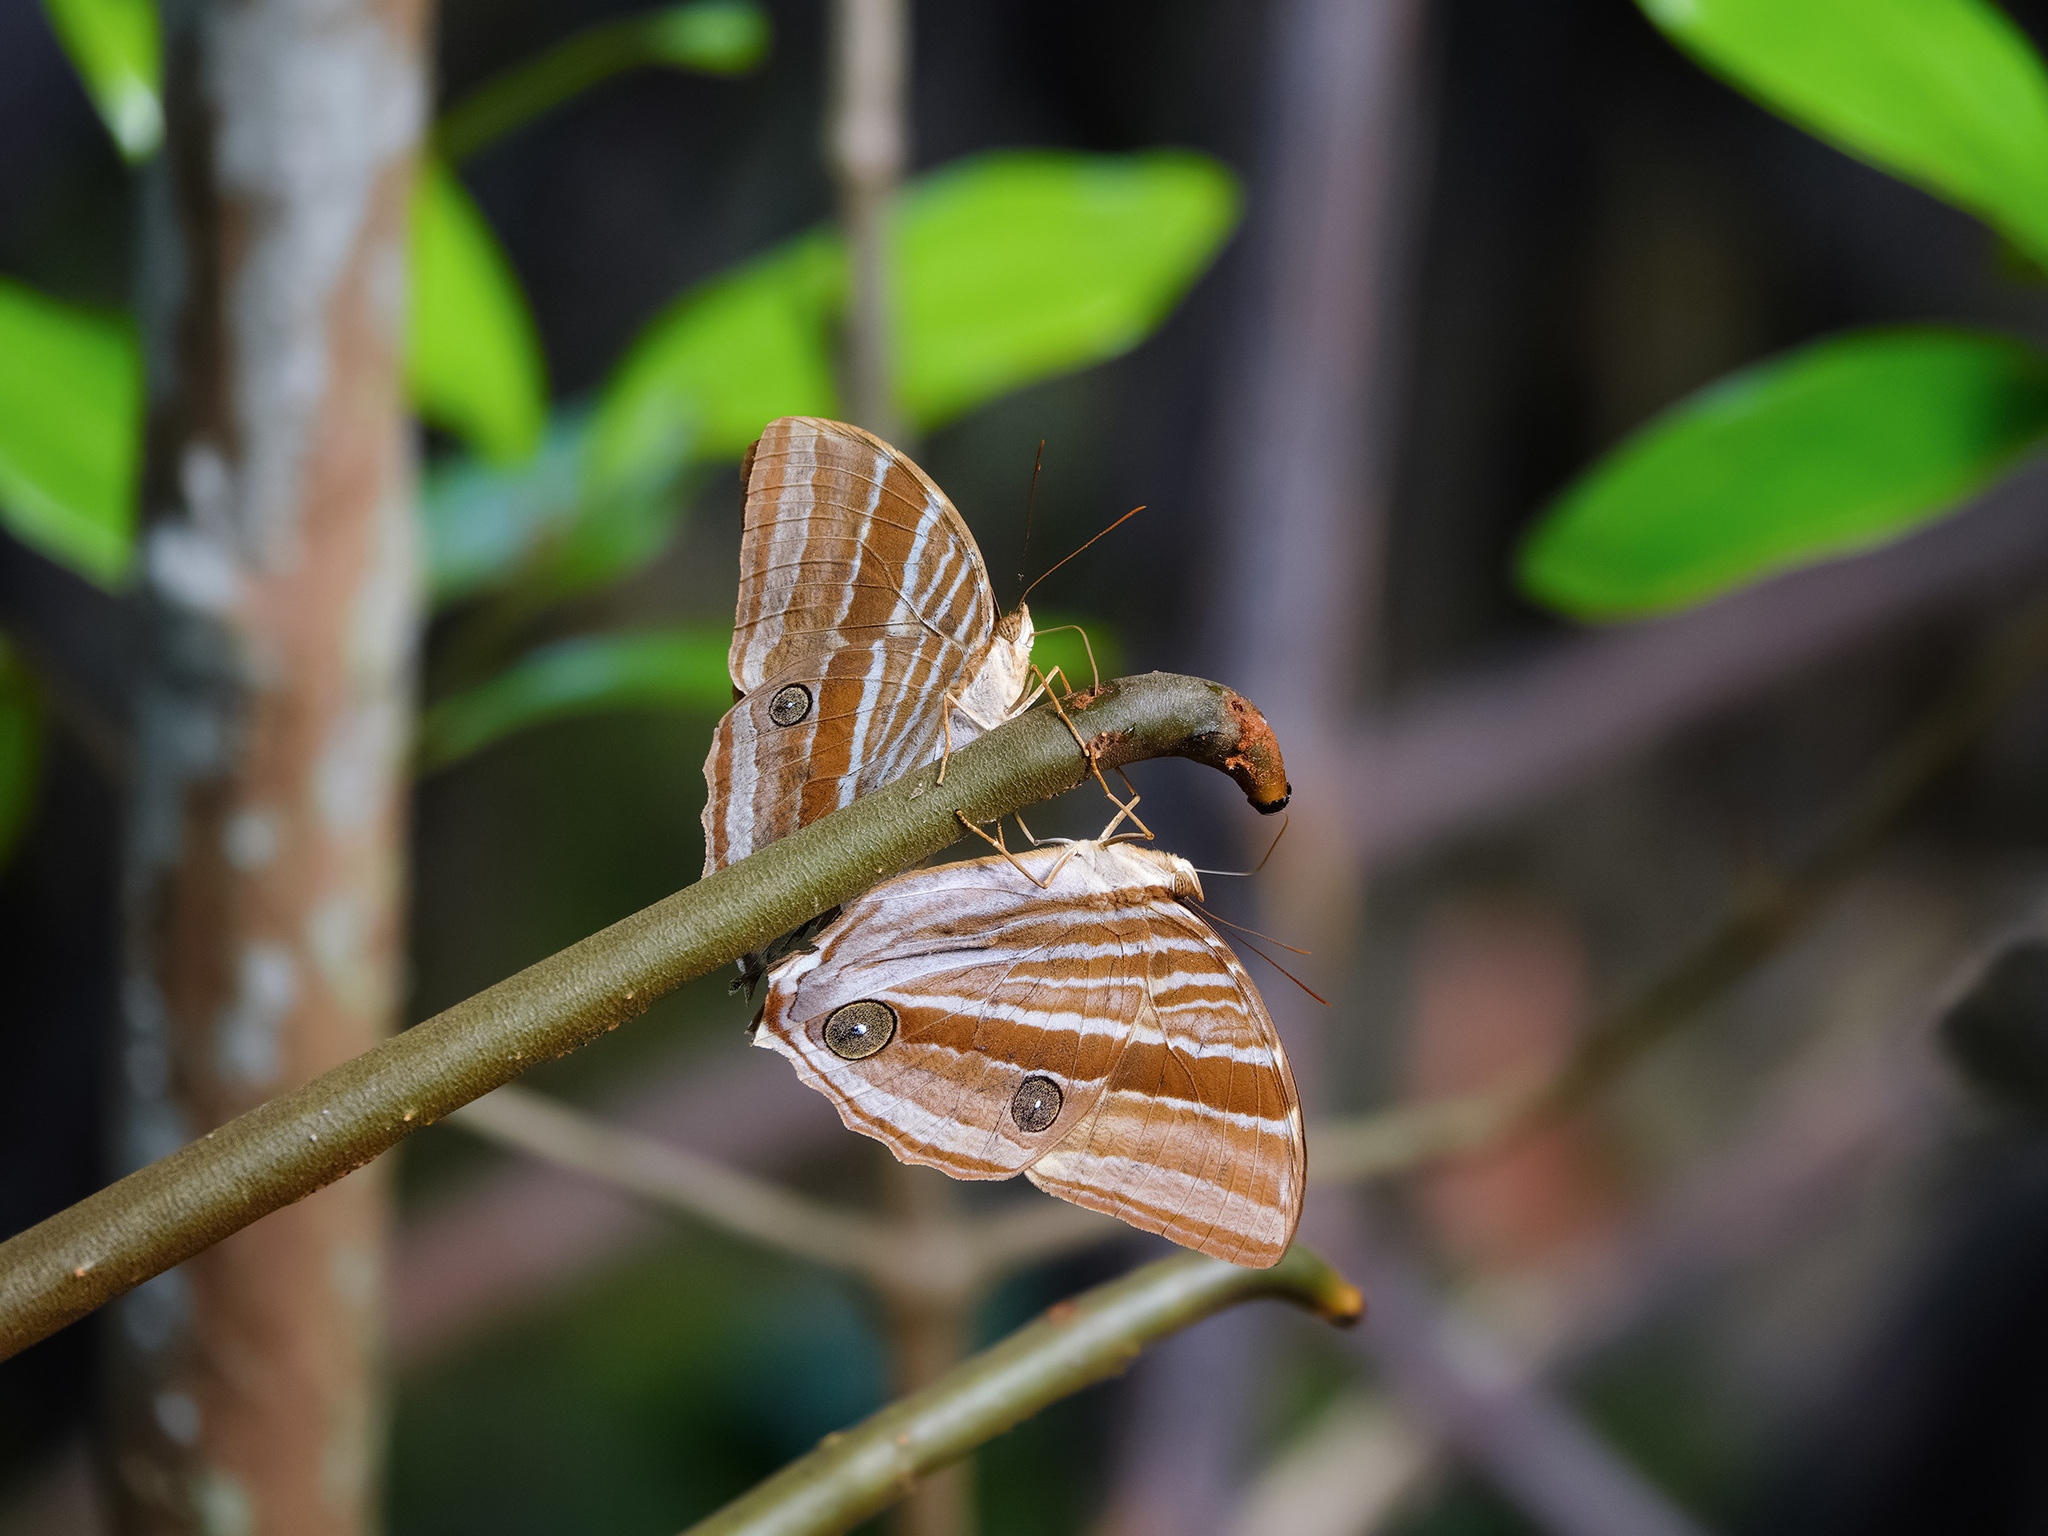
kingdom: Animalia
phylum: Arthropoda
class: Insecta
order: Lepidoptera
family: Nymphalidae
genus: Amathusia
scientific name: Amathusia phidippus
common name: Palm king
